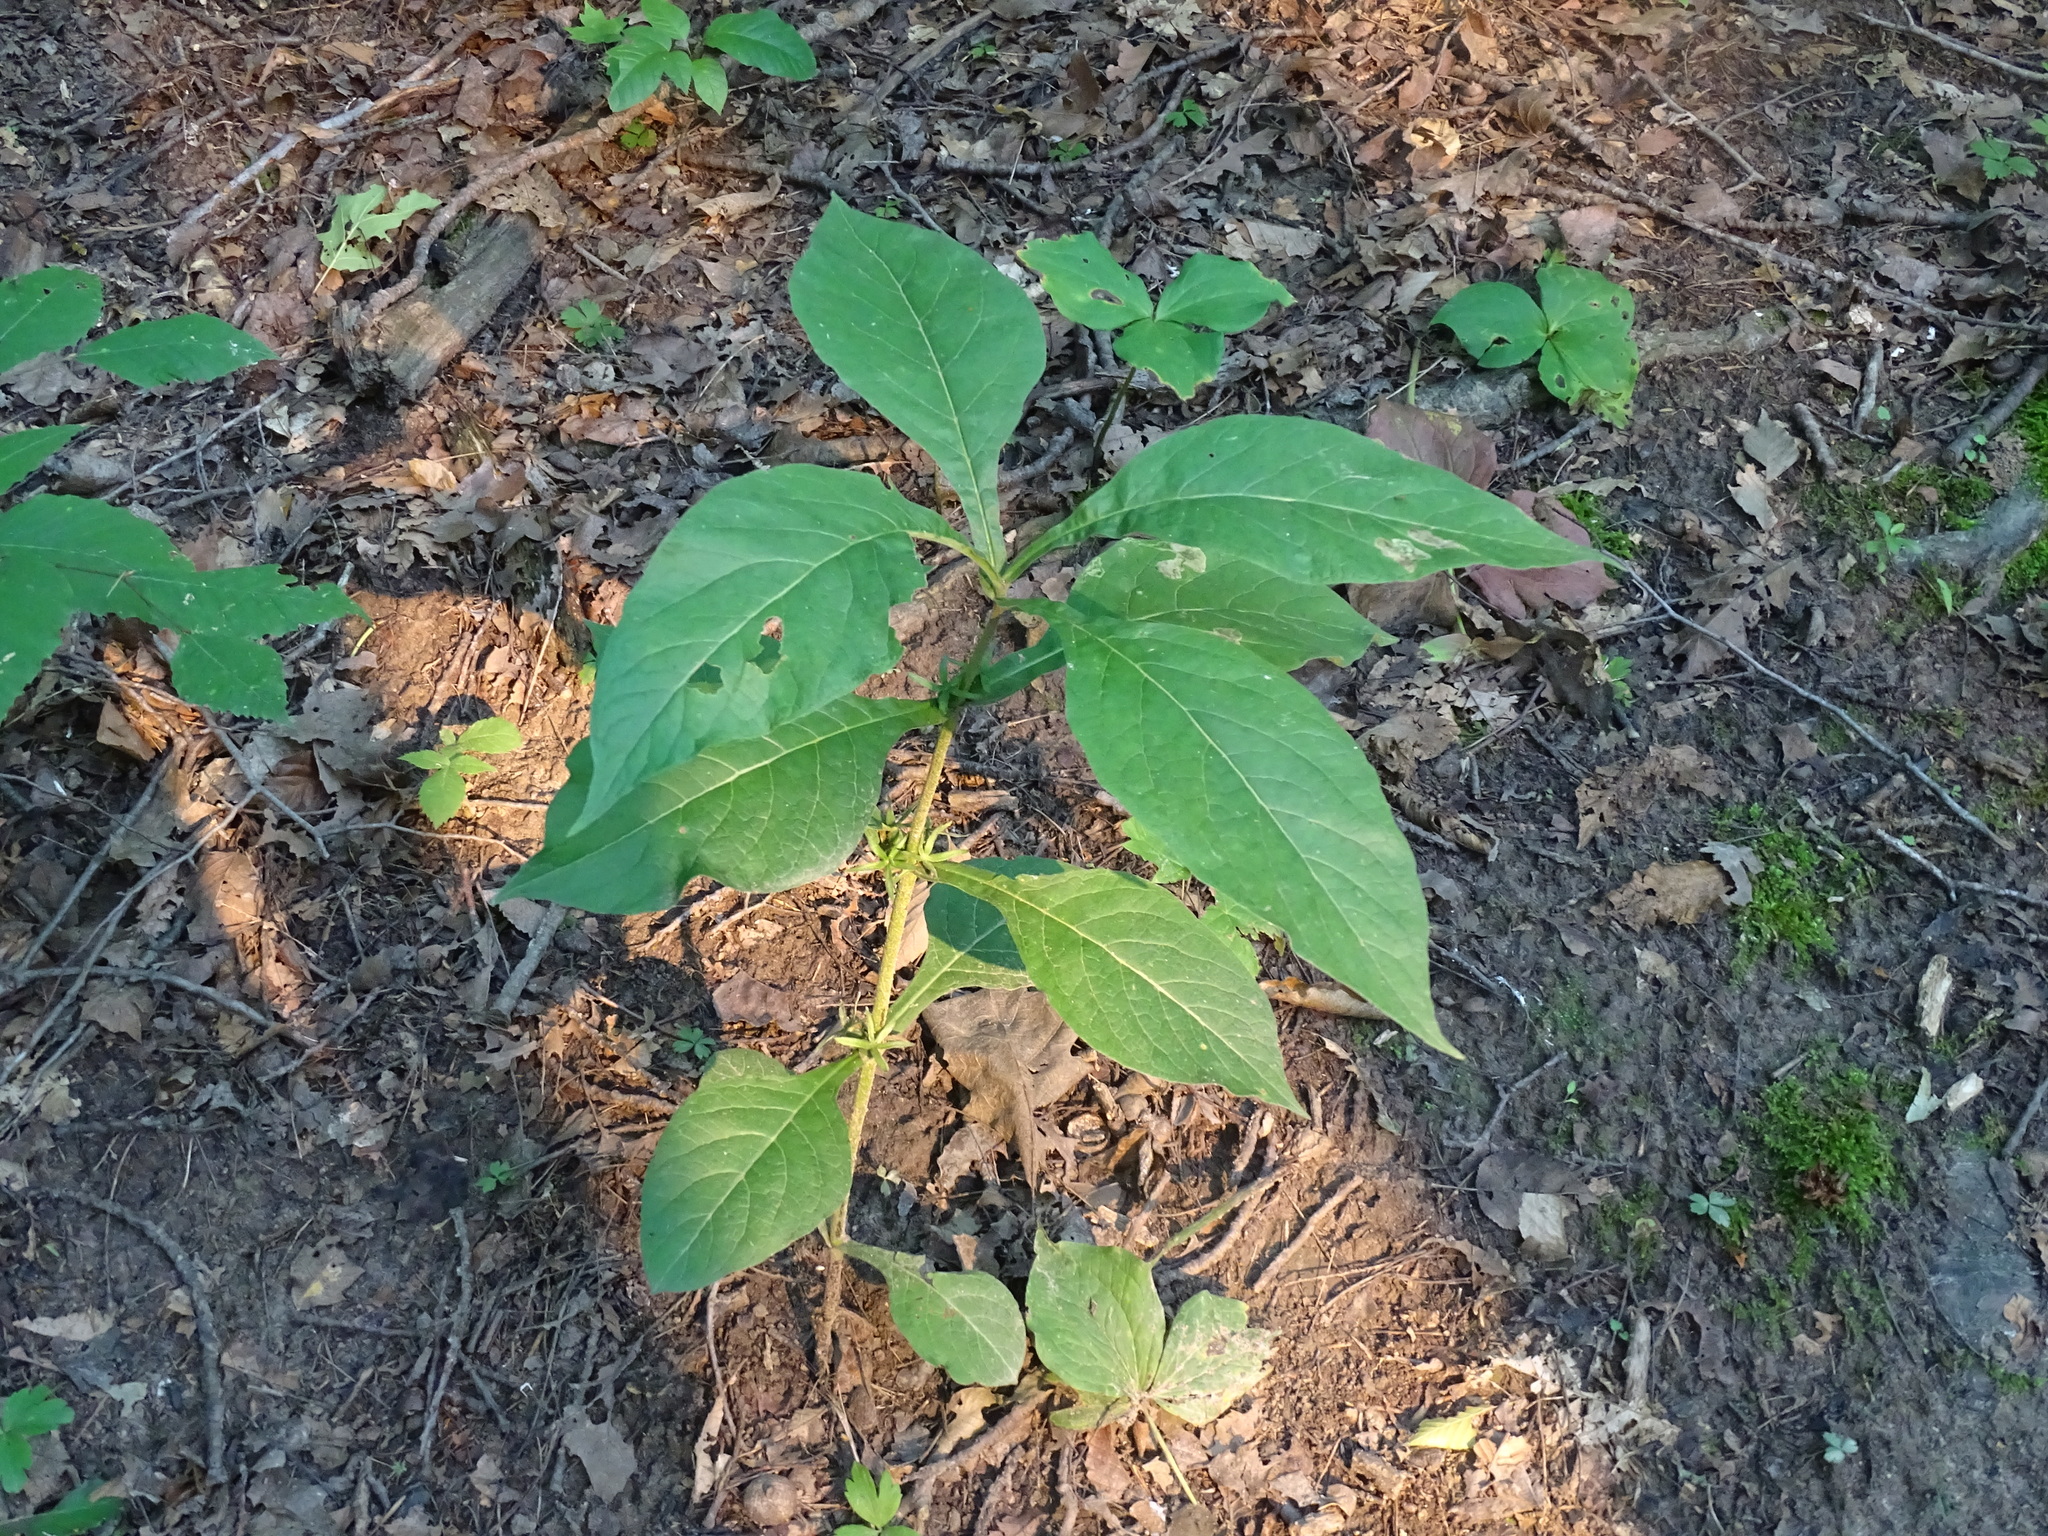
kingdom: Plantae
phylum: Tracheophyta
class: Magnoliopsida
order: Dipsacales
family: Caprifoliaceae
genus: Triosteum
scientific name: Triosteum aurantiacum
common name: Coffee tinker's-weed
